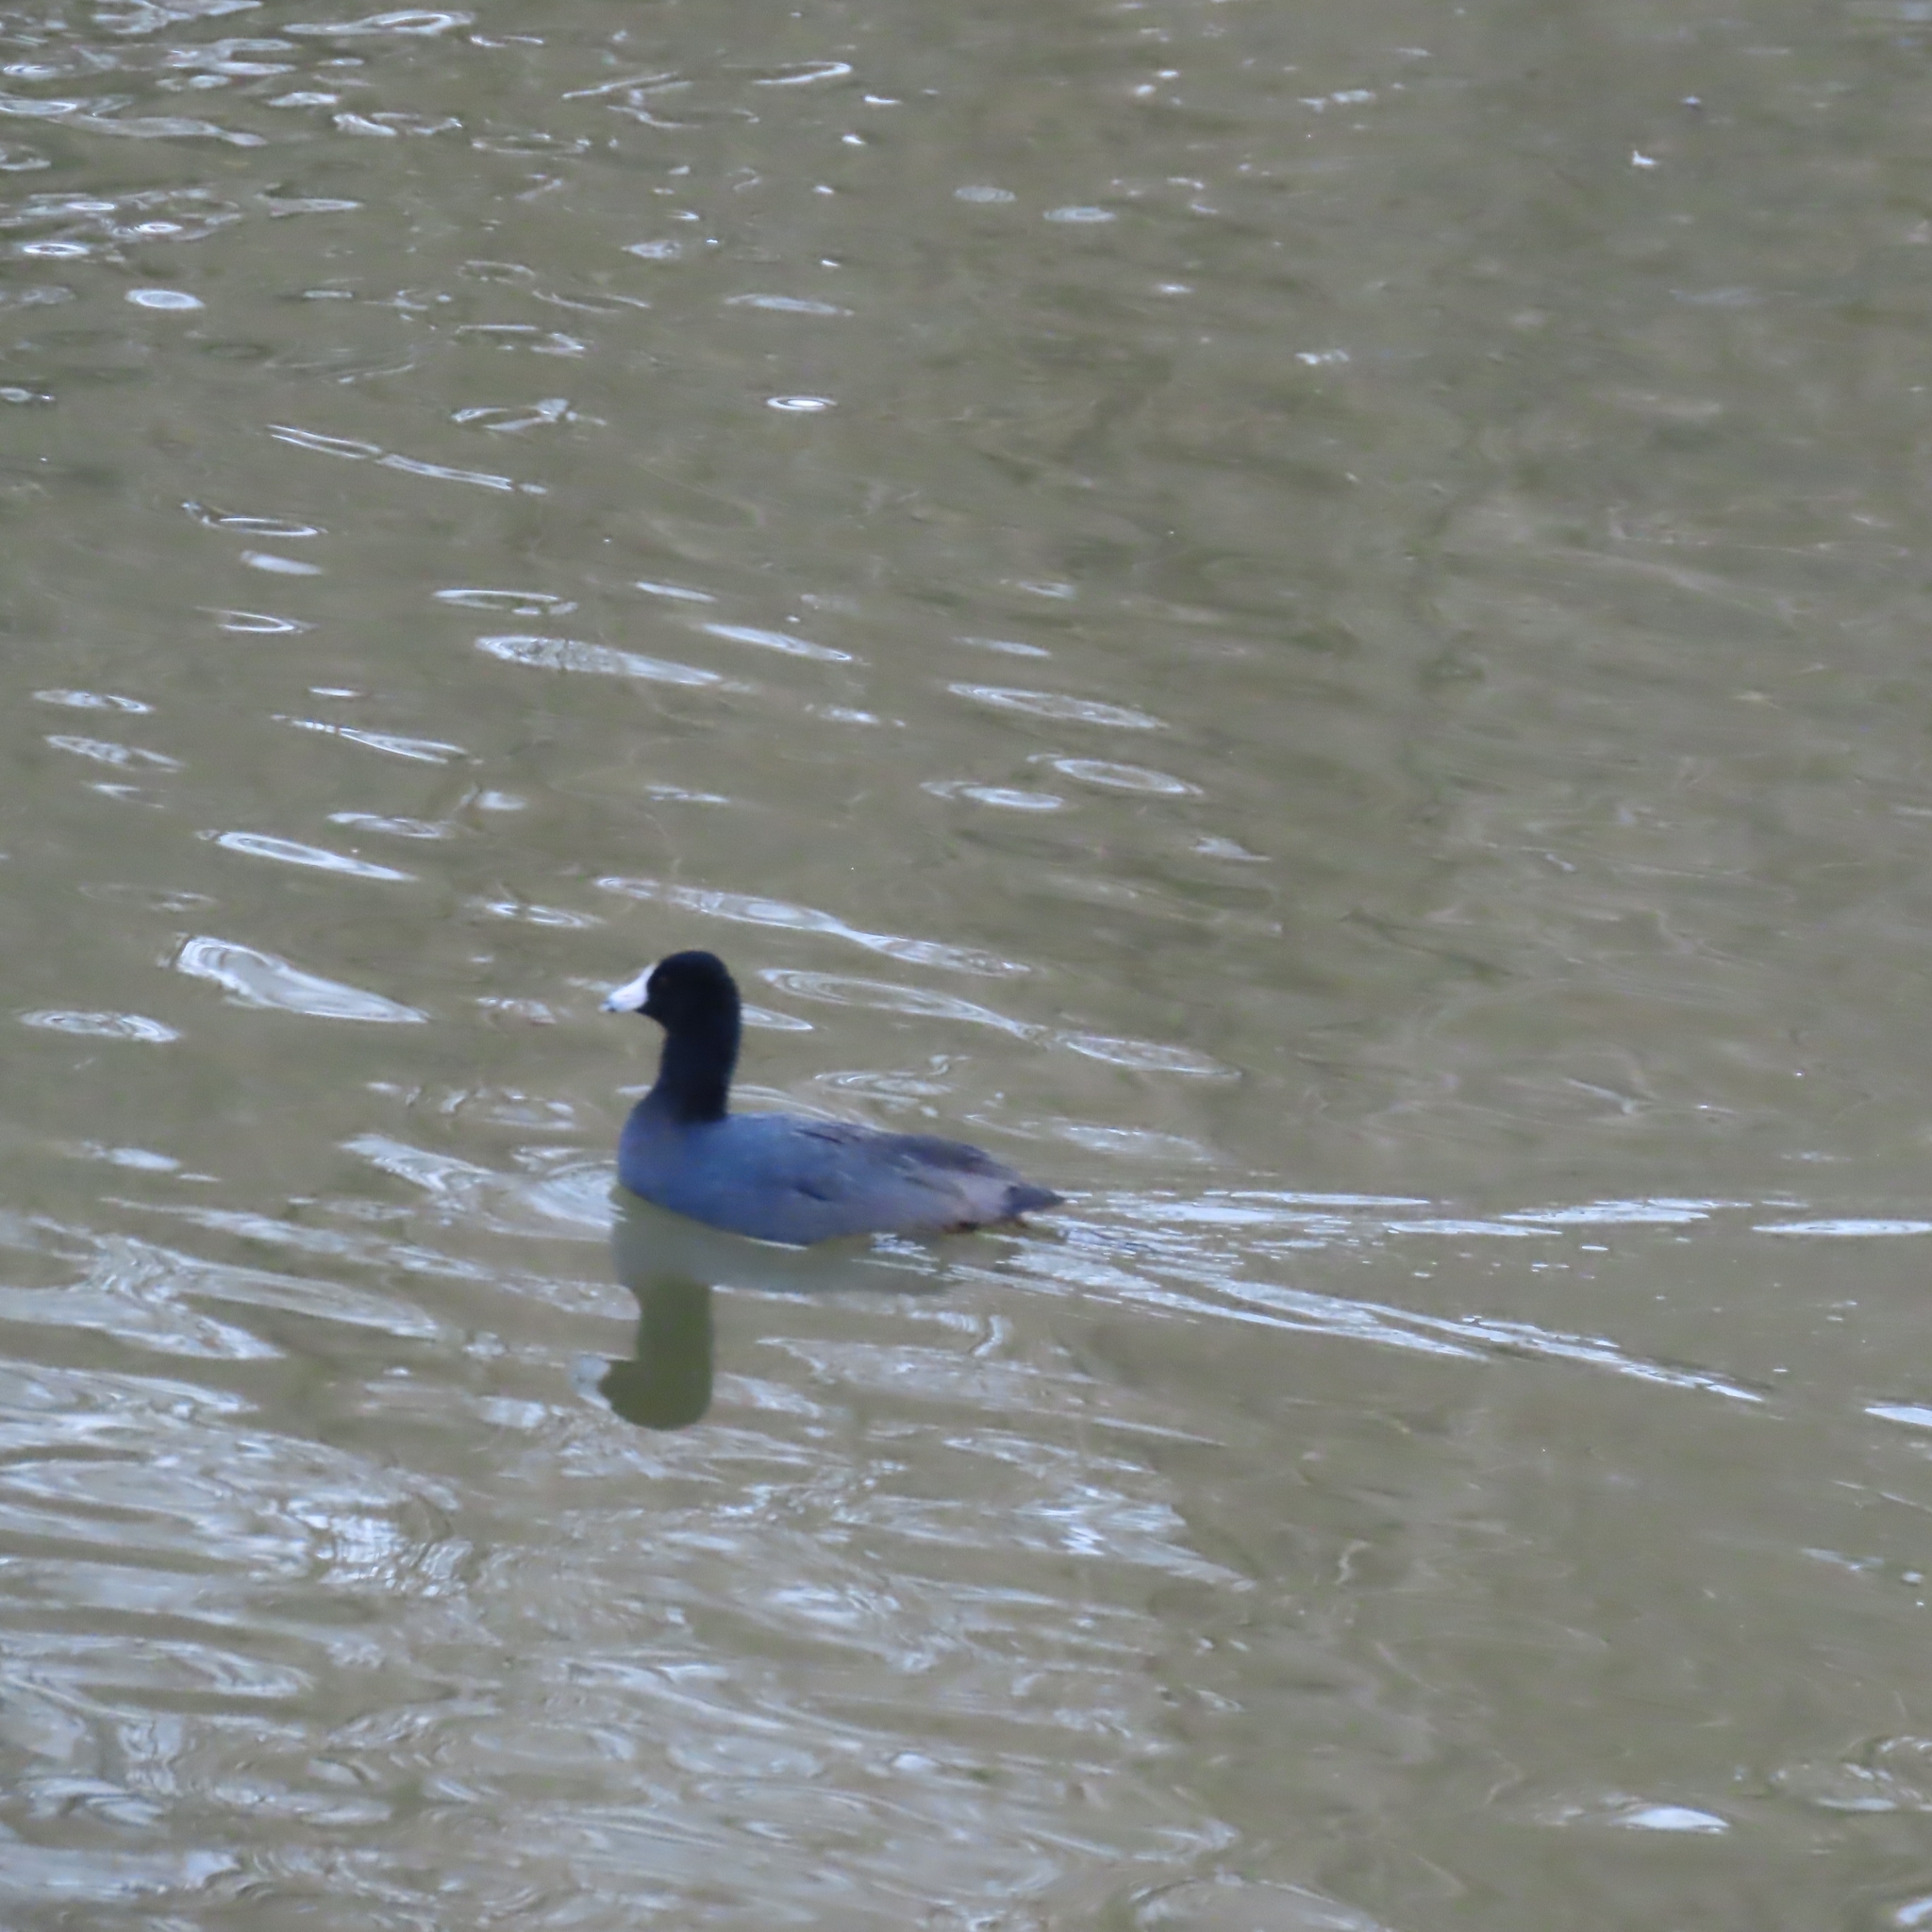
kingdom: Animalia
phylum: Chordata
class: Aves
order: Gruiformes
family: Rallidae
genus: Fulica
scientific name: Fulica americana
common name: American coot
